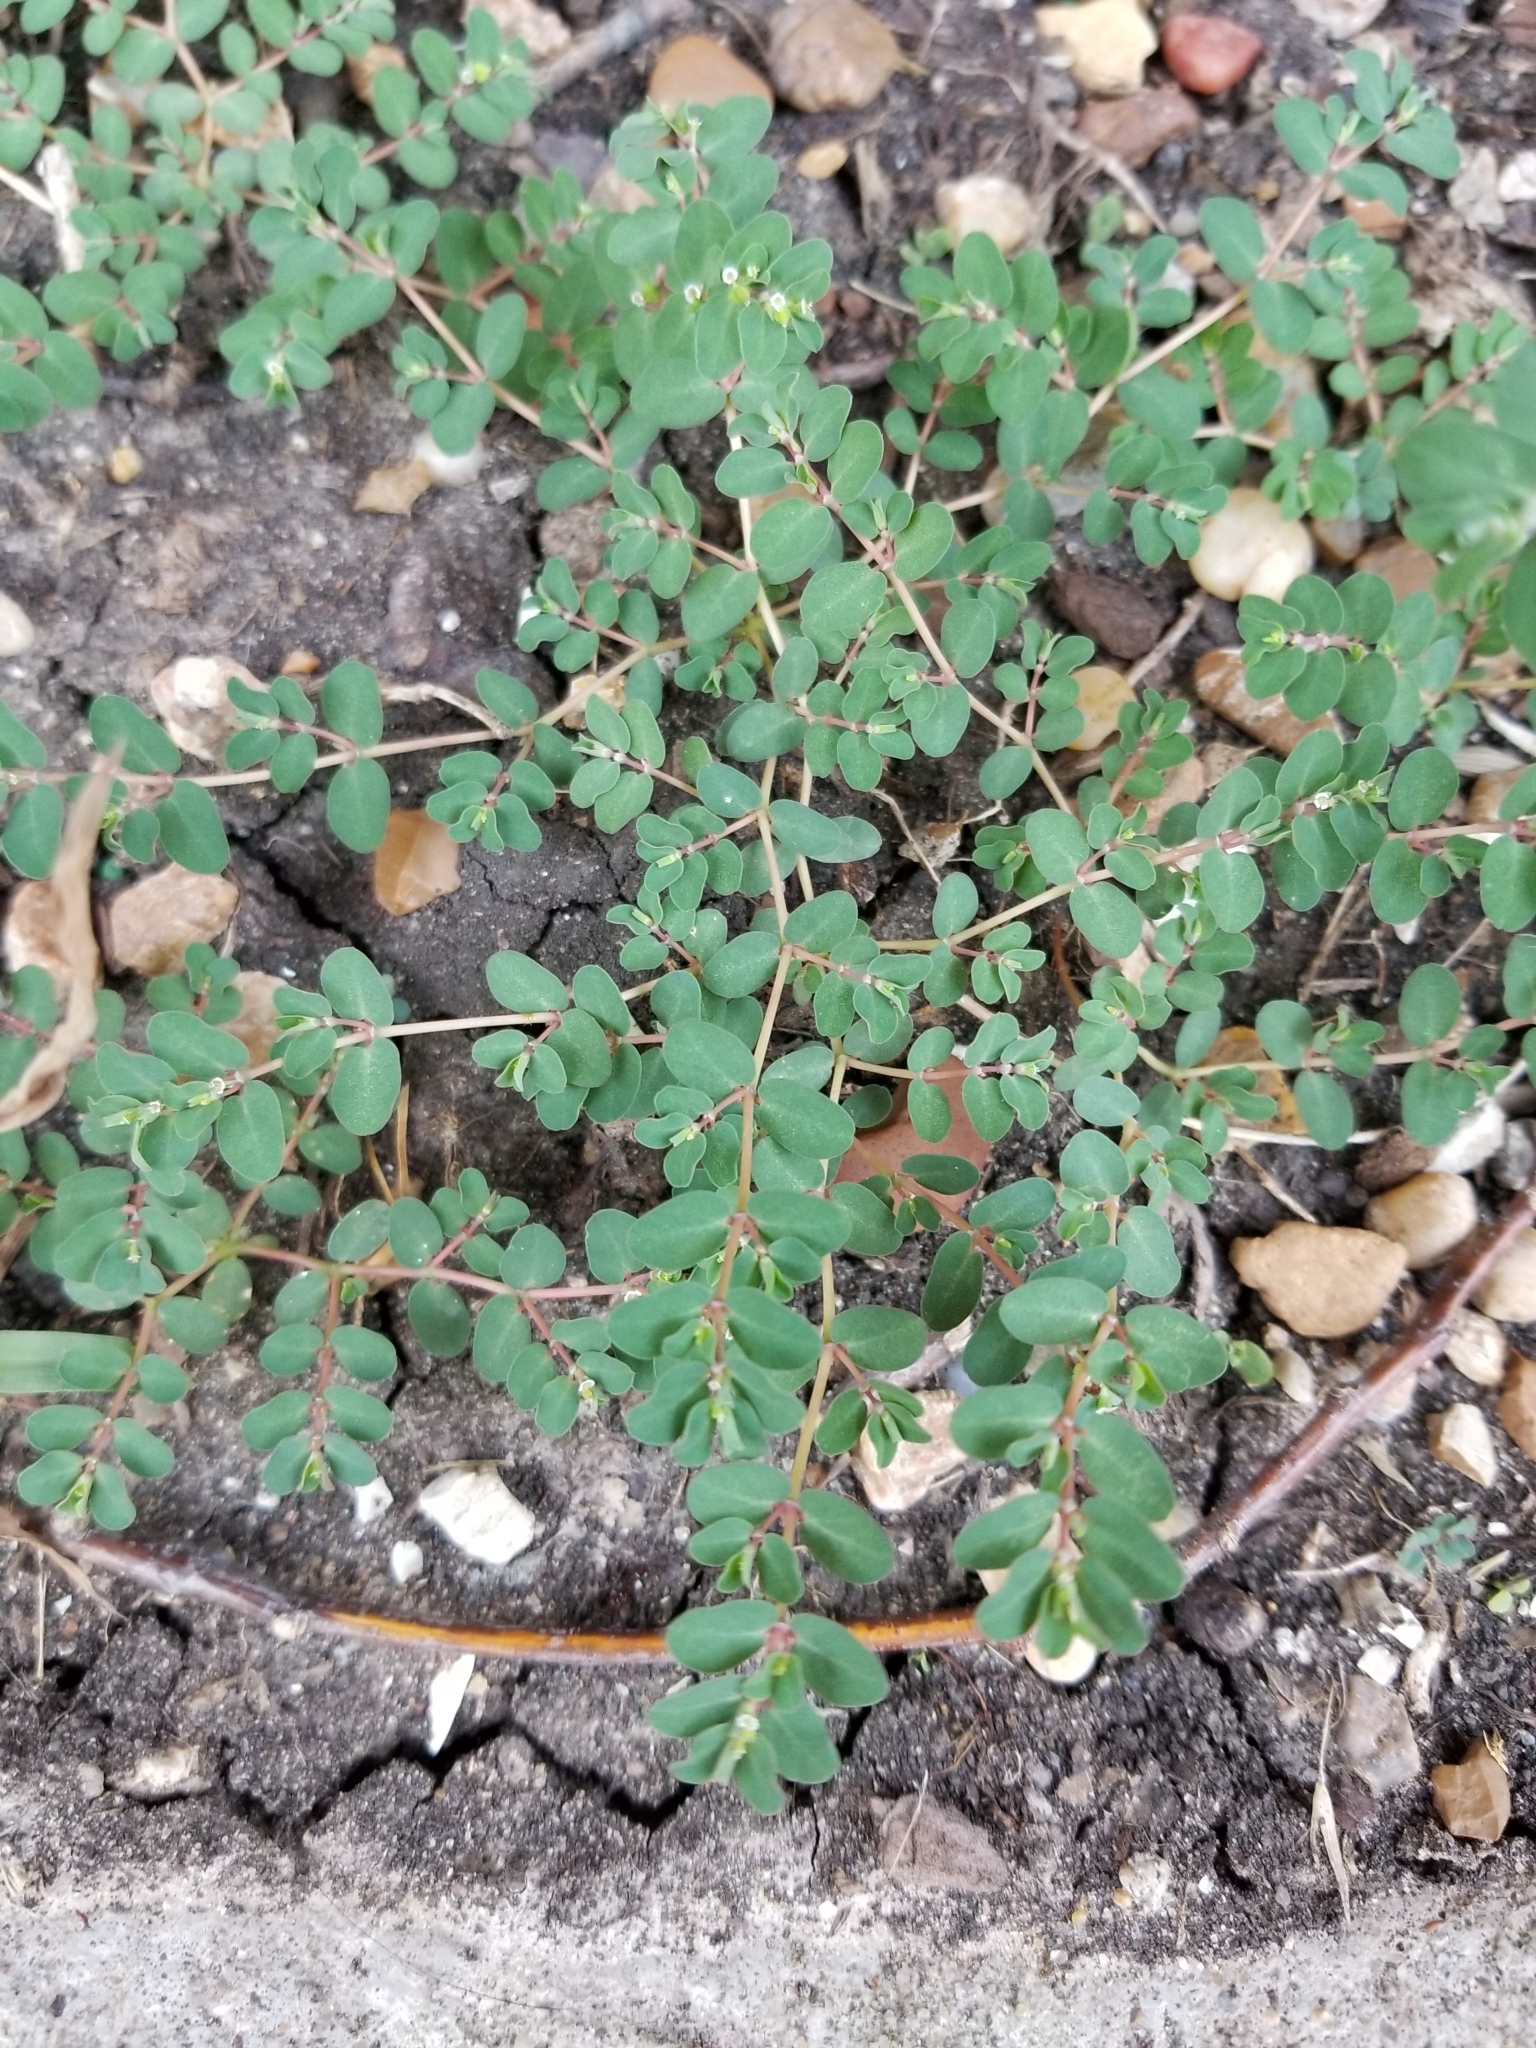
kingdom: Plantae
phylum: Tracheophyta
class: Magnoliopsida
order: Malpighiales
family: Euphorbiaceae
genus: Euphorbia
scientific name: Euphorbia serpens
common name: Matted sandmat
